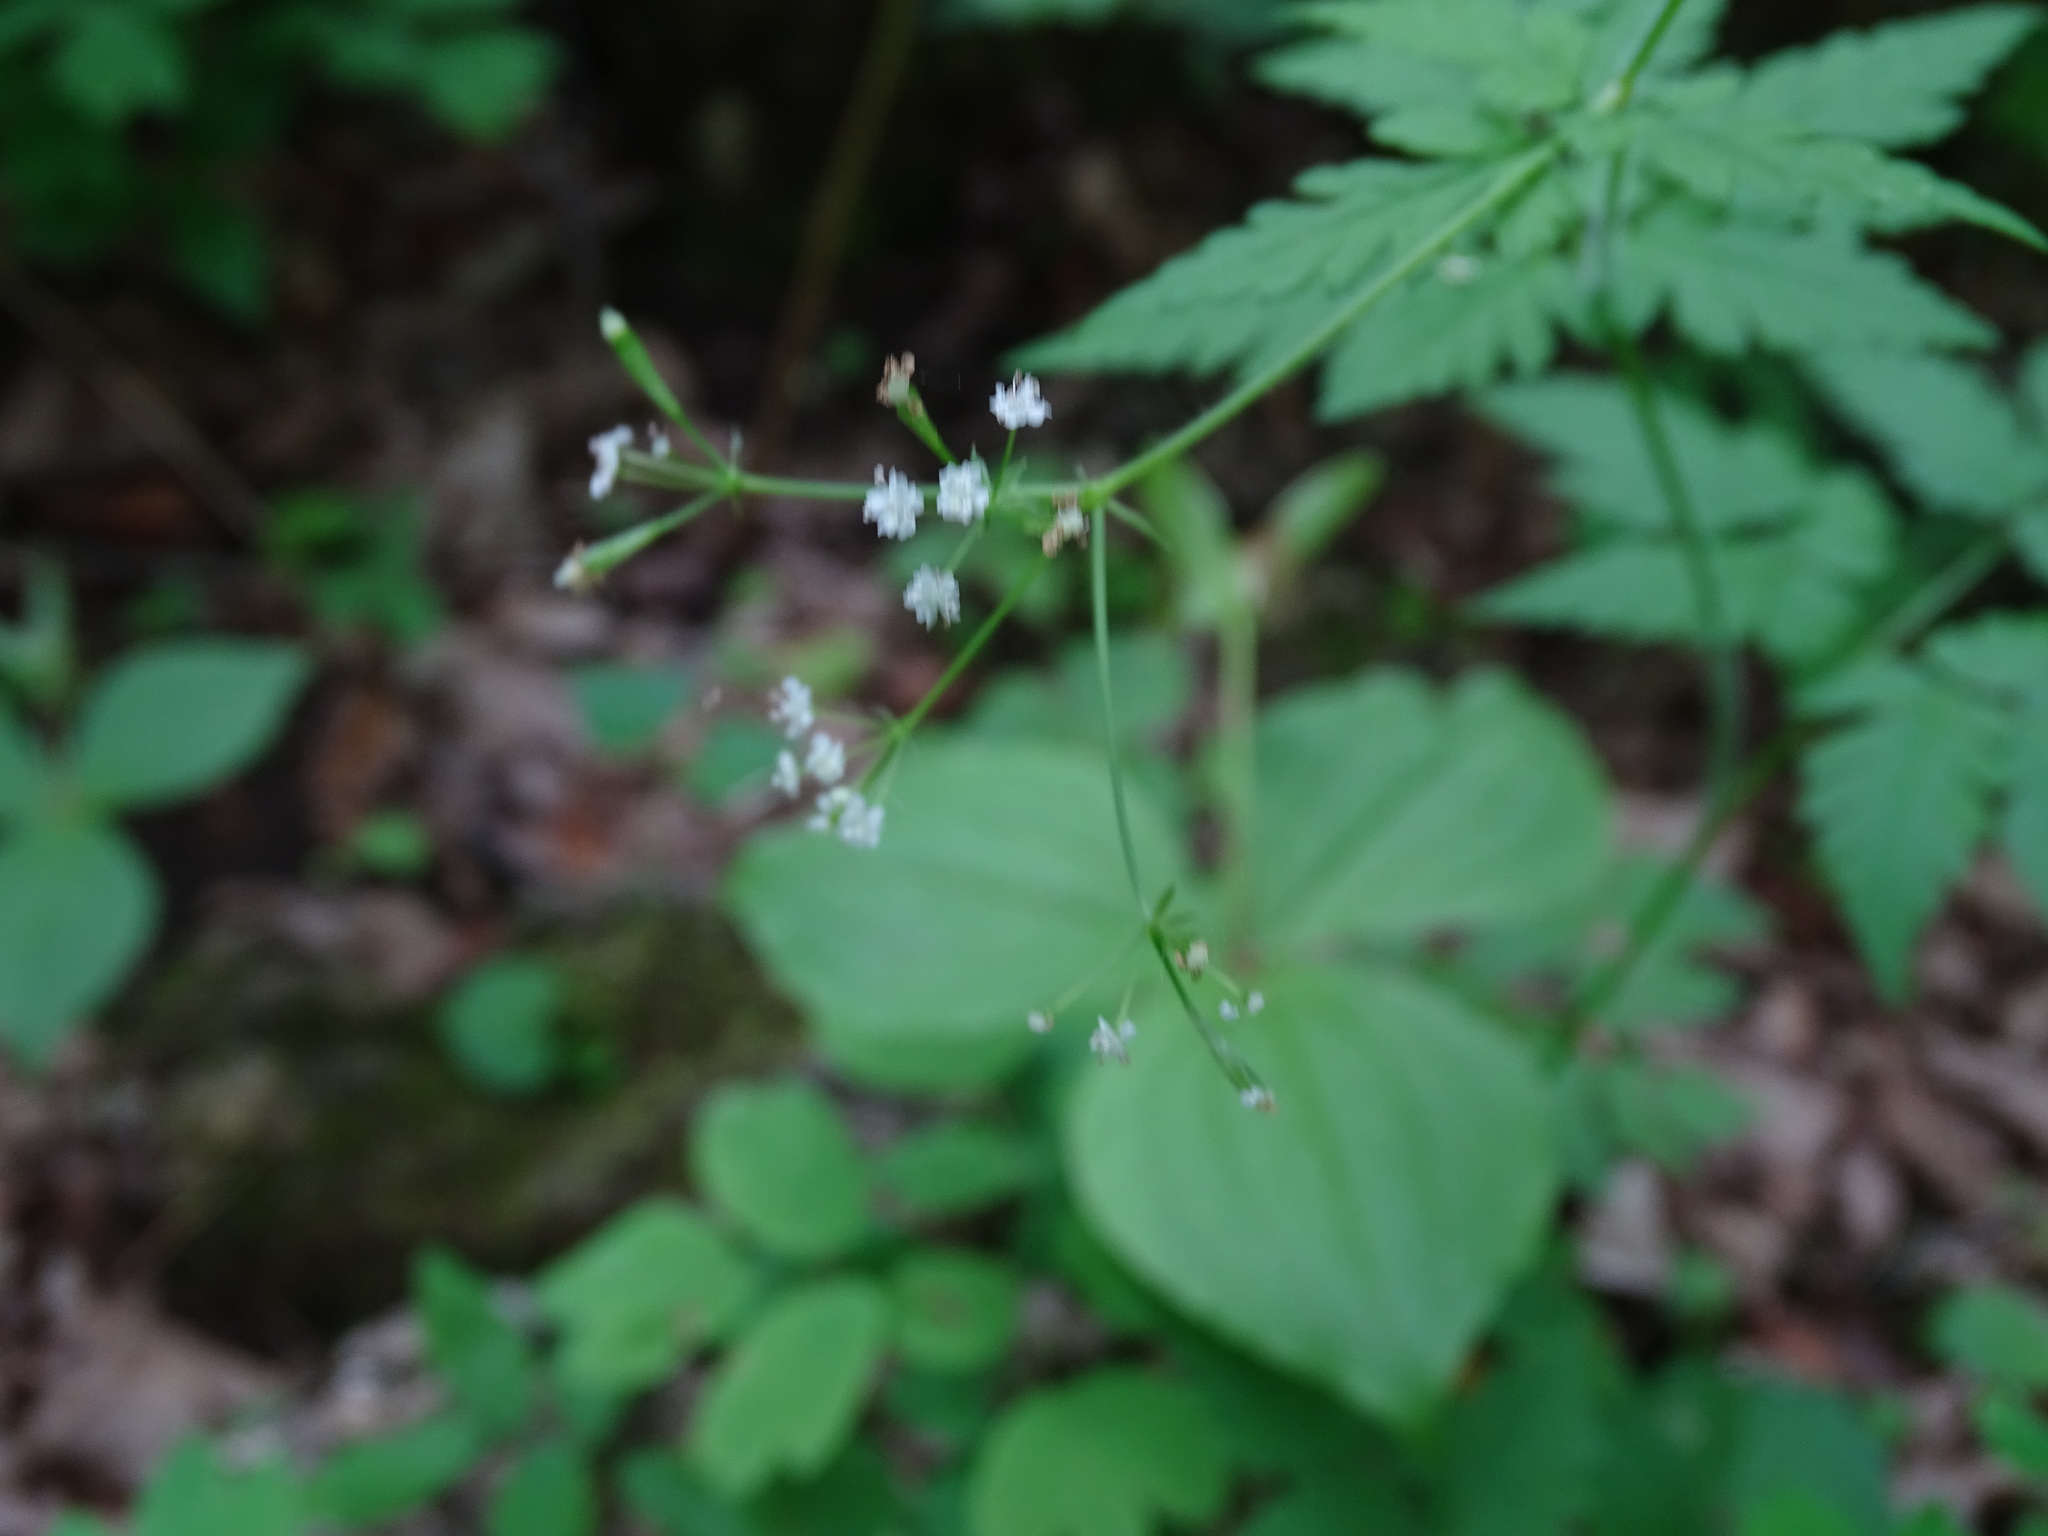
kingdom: Plantae
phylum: Tracheophyta
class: Magnoliopsida
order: Apiales
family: Apiaceae
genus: Osmorhiza
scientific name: Osmorhiza claytonii
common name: Hairy sweet cicely
